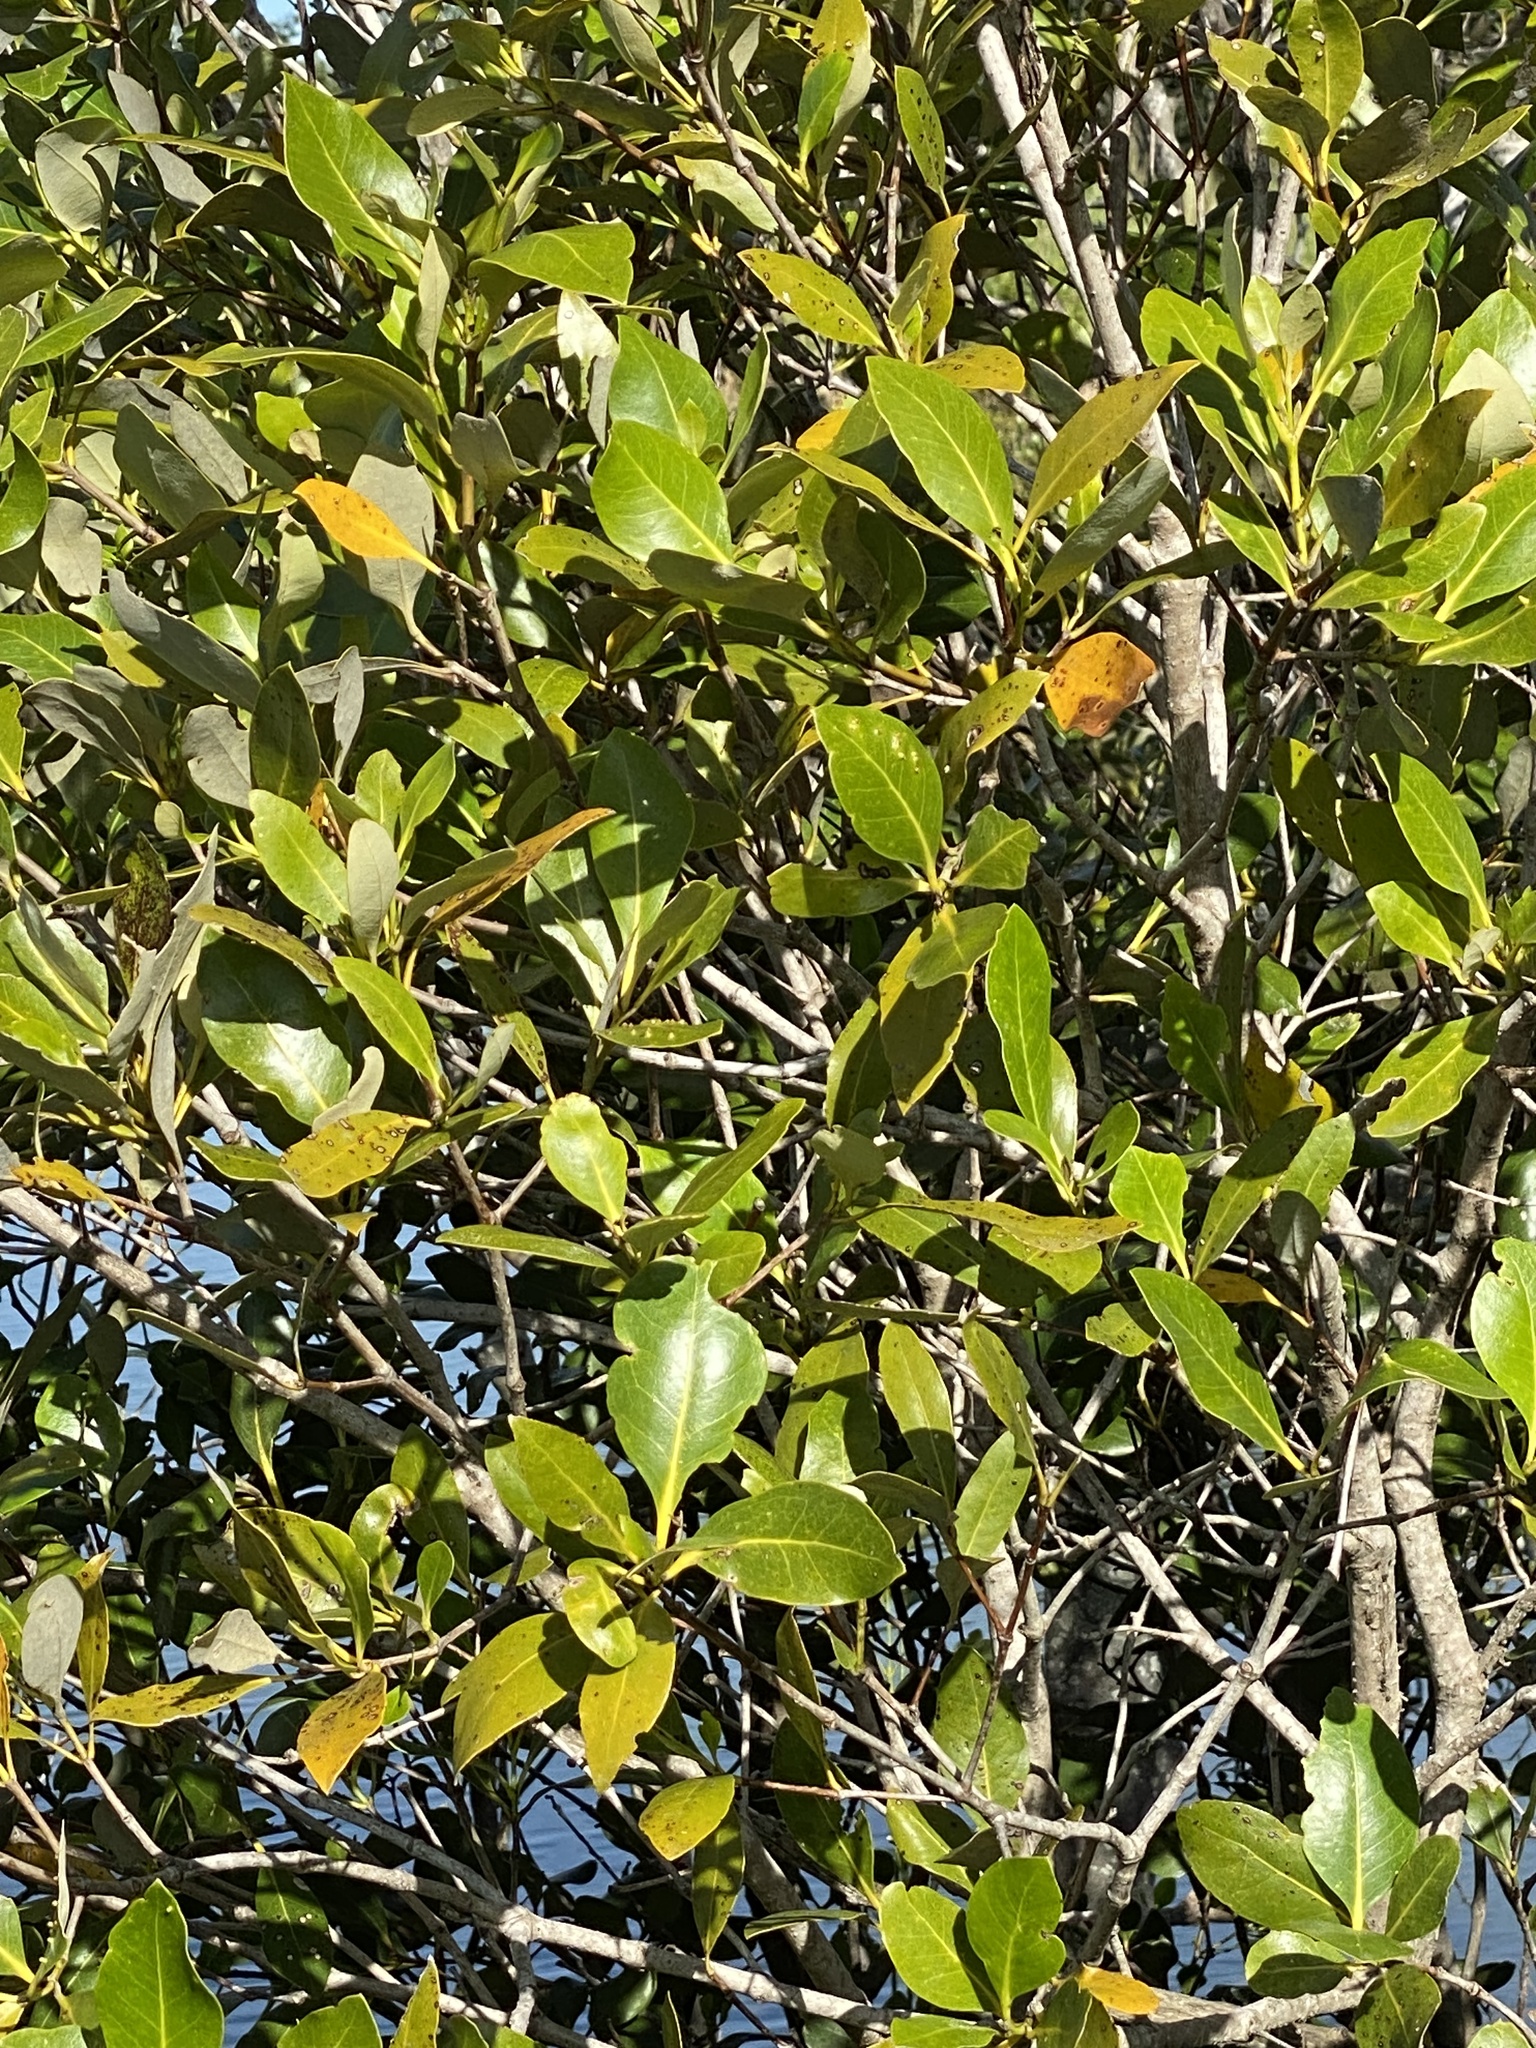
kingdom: Plantae
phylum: Tracheophyta
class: Magnoliopsida
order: Lamiales
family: Acanthaceae
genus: Avicennia
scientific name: Avicennia marina
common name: Gray mangrove
